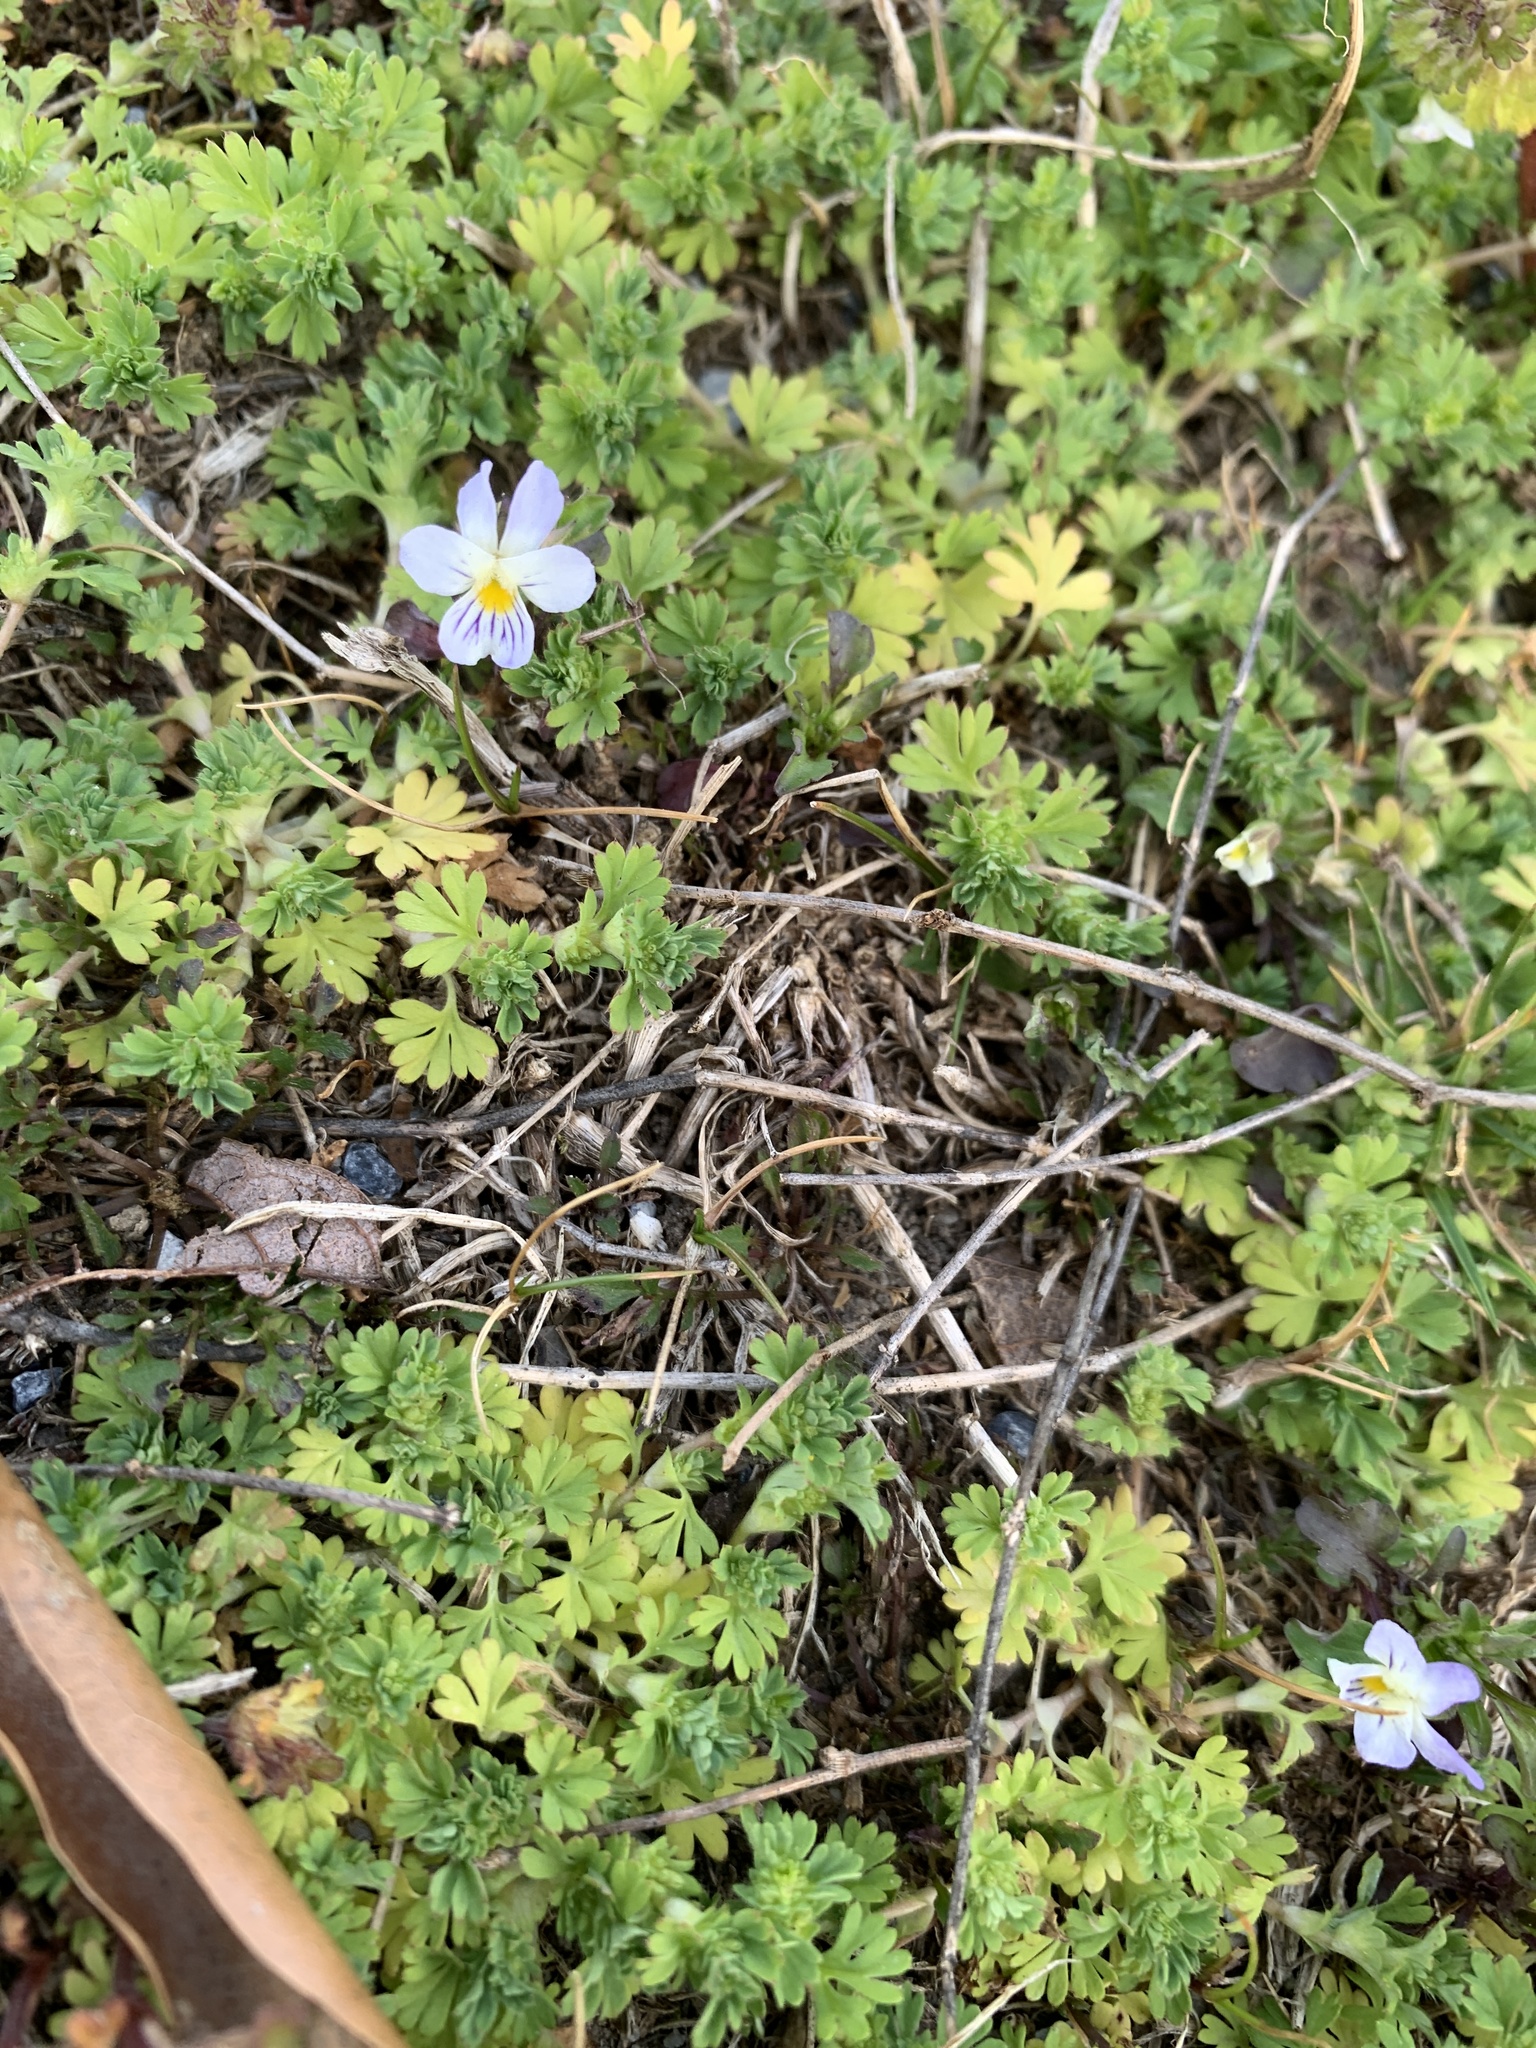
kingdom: Plantae
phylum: Tracheophyta
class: Magnoliopsida
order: Malpighiales
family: Violaceae
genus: Viola
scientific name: Viola rafinesquei
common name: American field pansy
